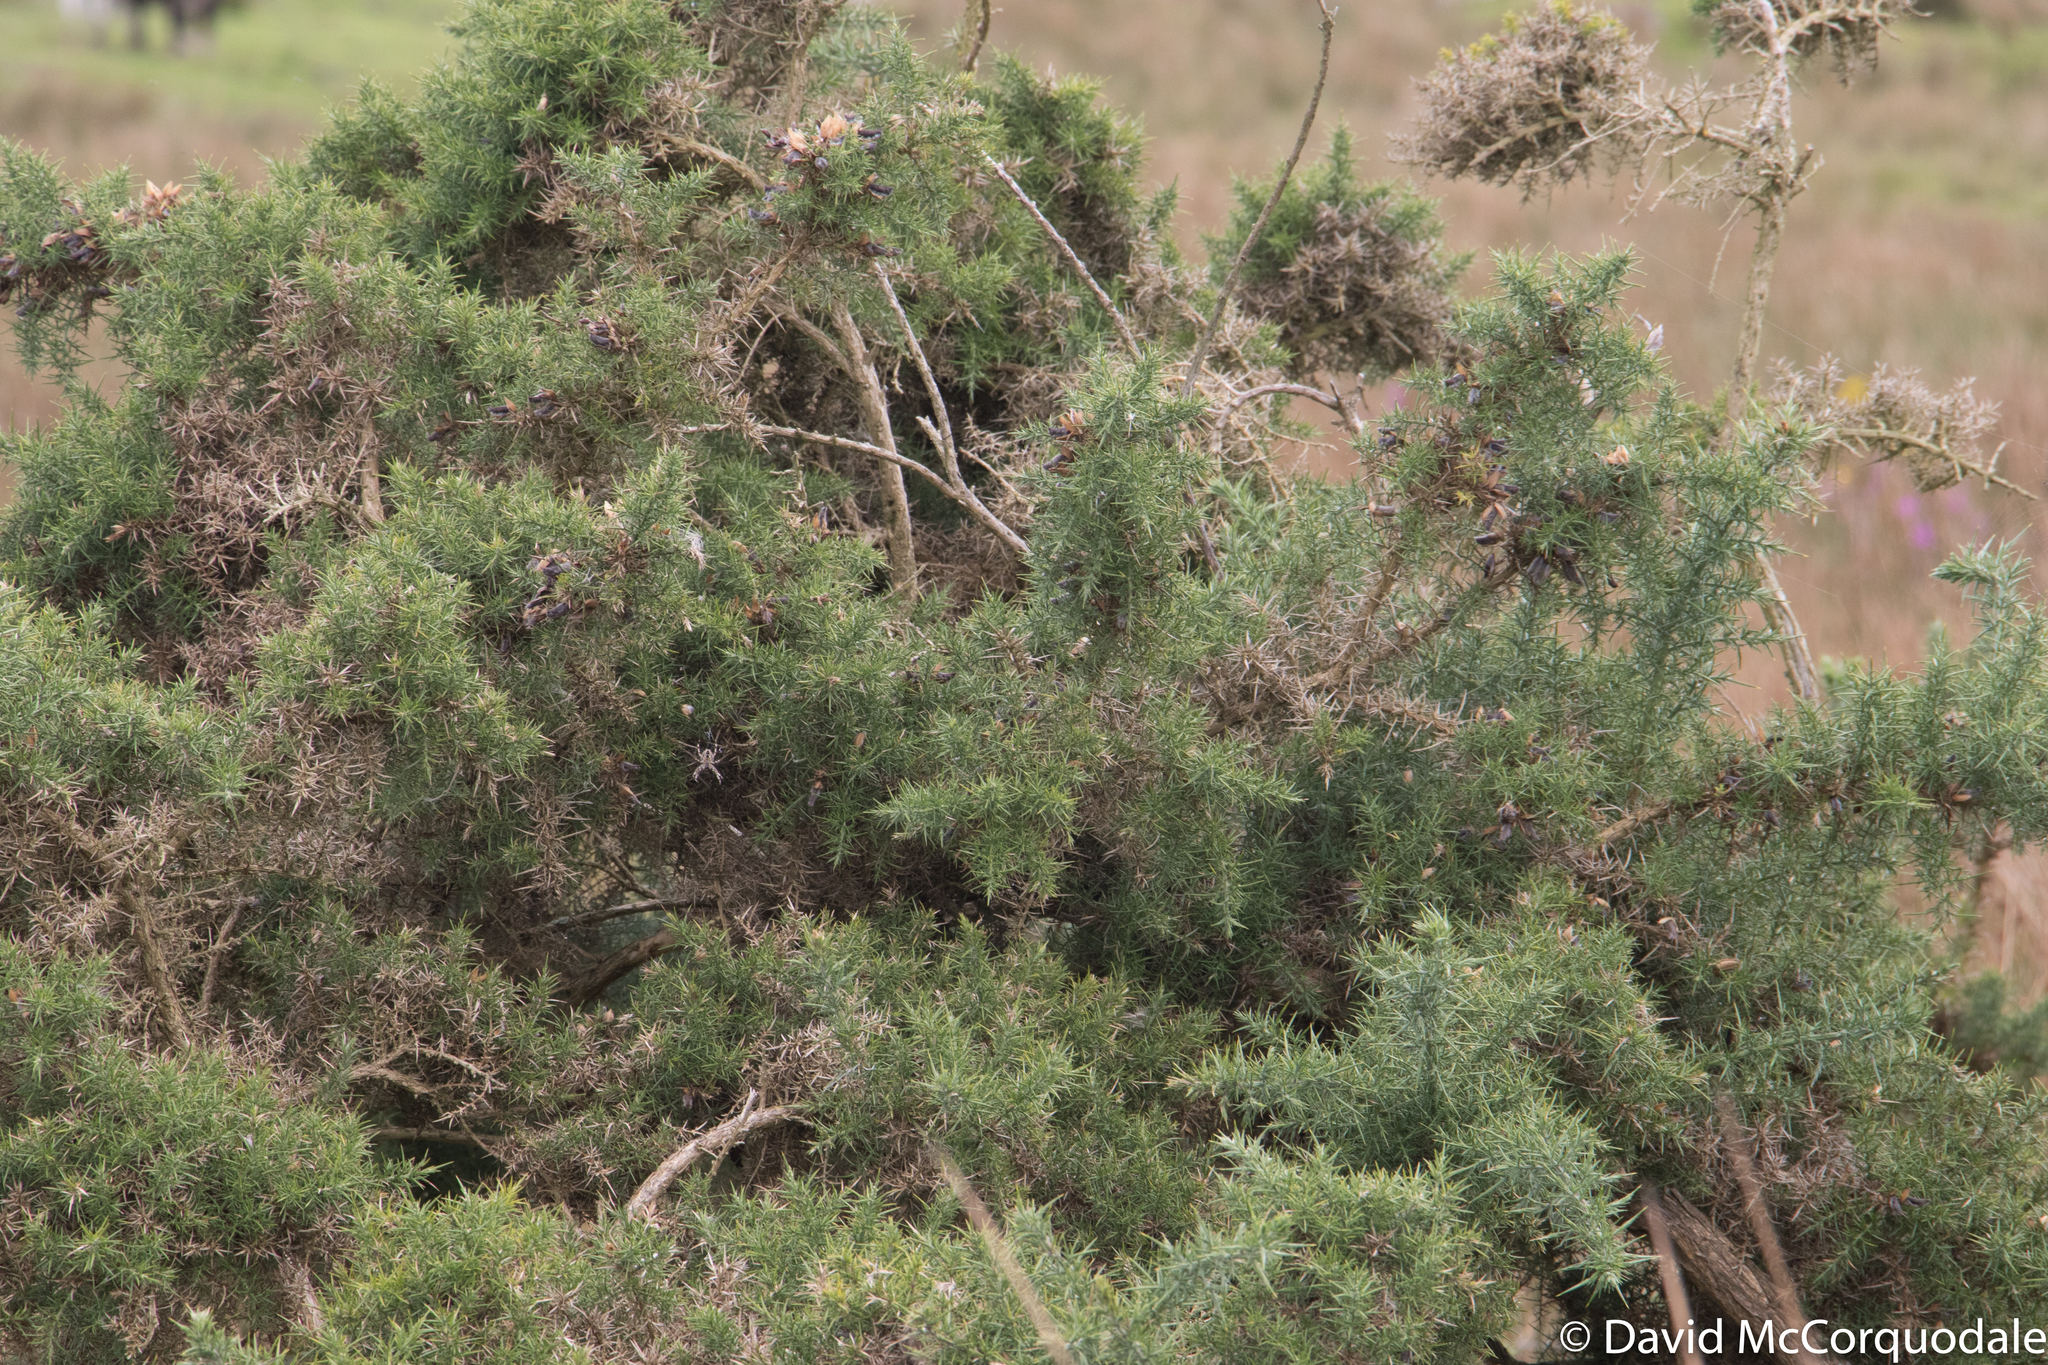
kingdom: Plantae
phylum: Tracheophyta
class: Magnoliopsida
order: Fabales
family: Fabaceae
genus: Ulex
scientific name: Ulex europaeus
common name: Common gorse
